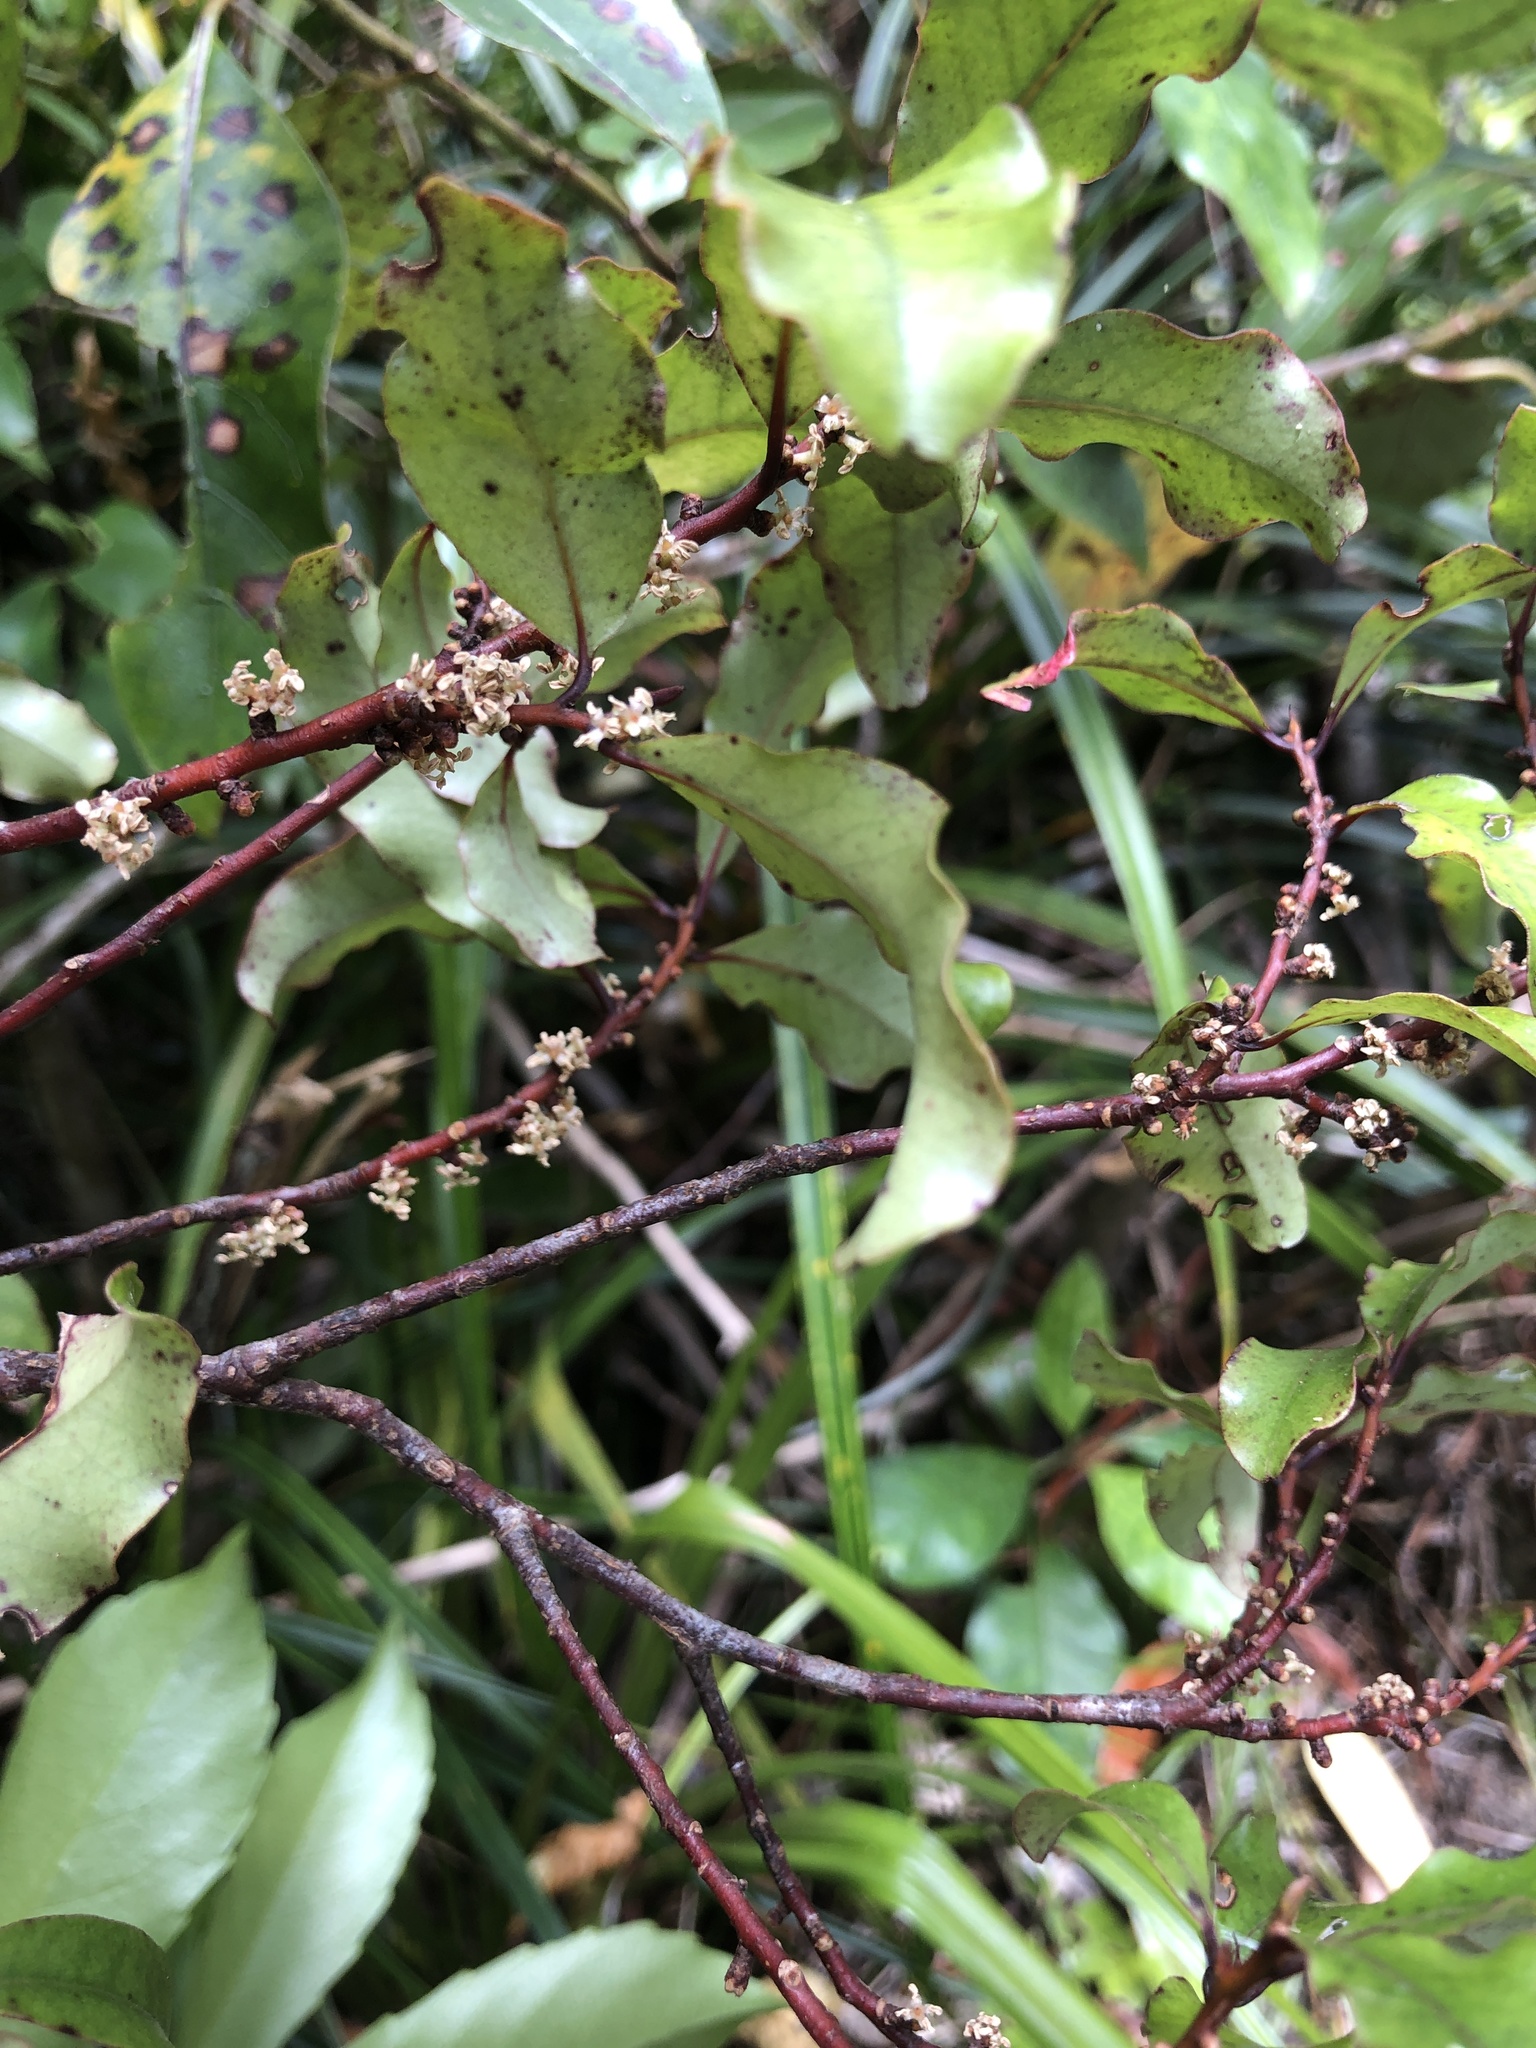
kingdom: Plantae
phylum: Tracheophyta
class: Magnoliopsida
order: Ericales
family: Primulaceae
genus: Myrsine
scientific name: Myrsine australis
